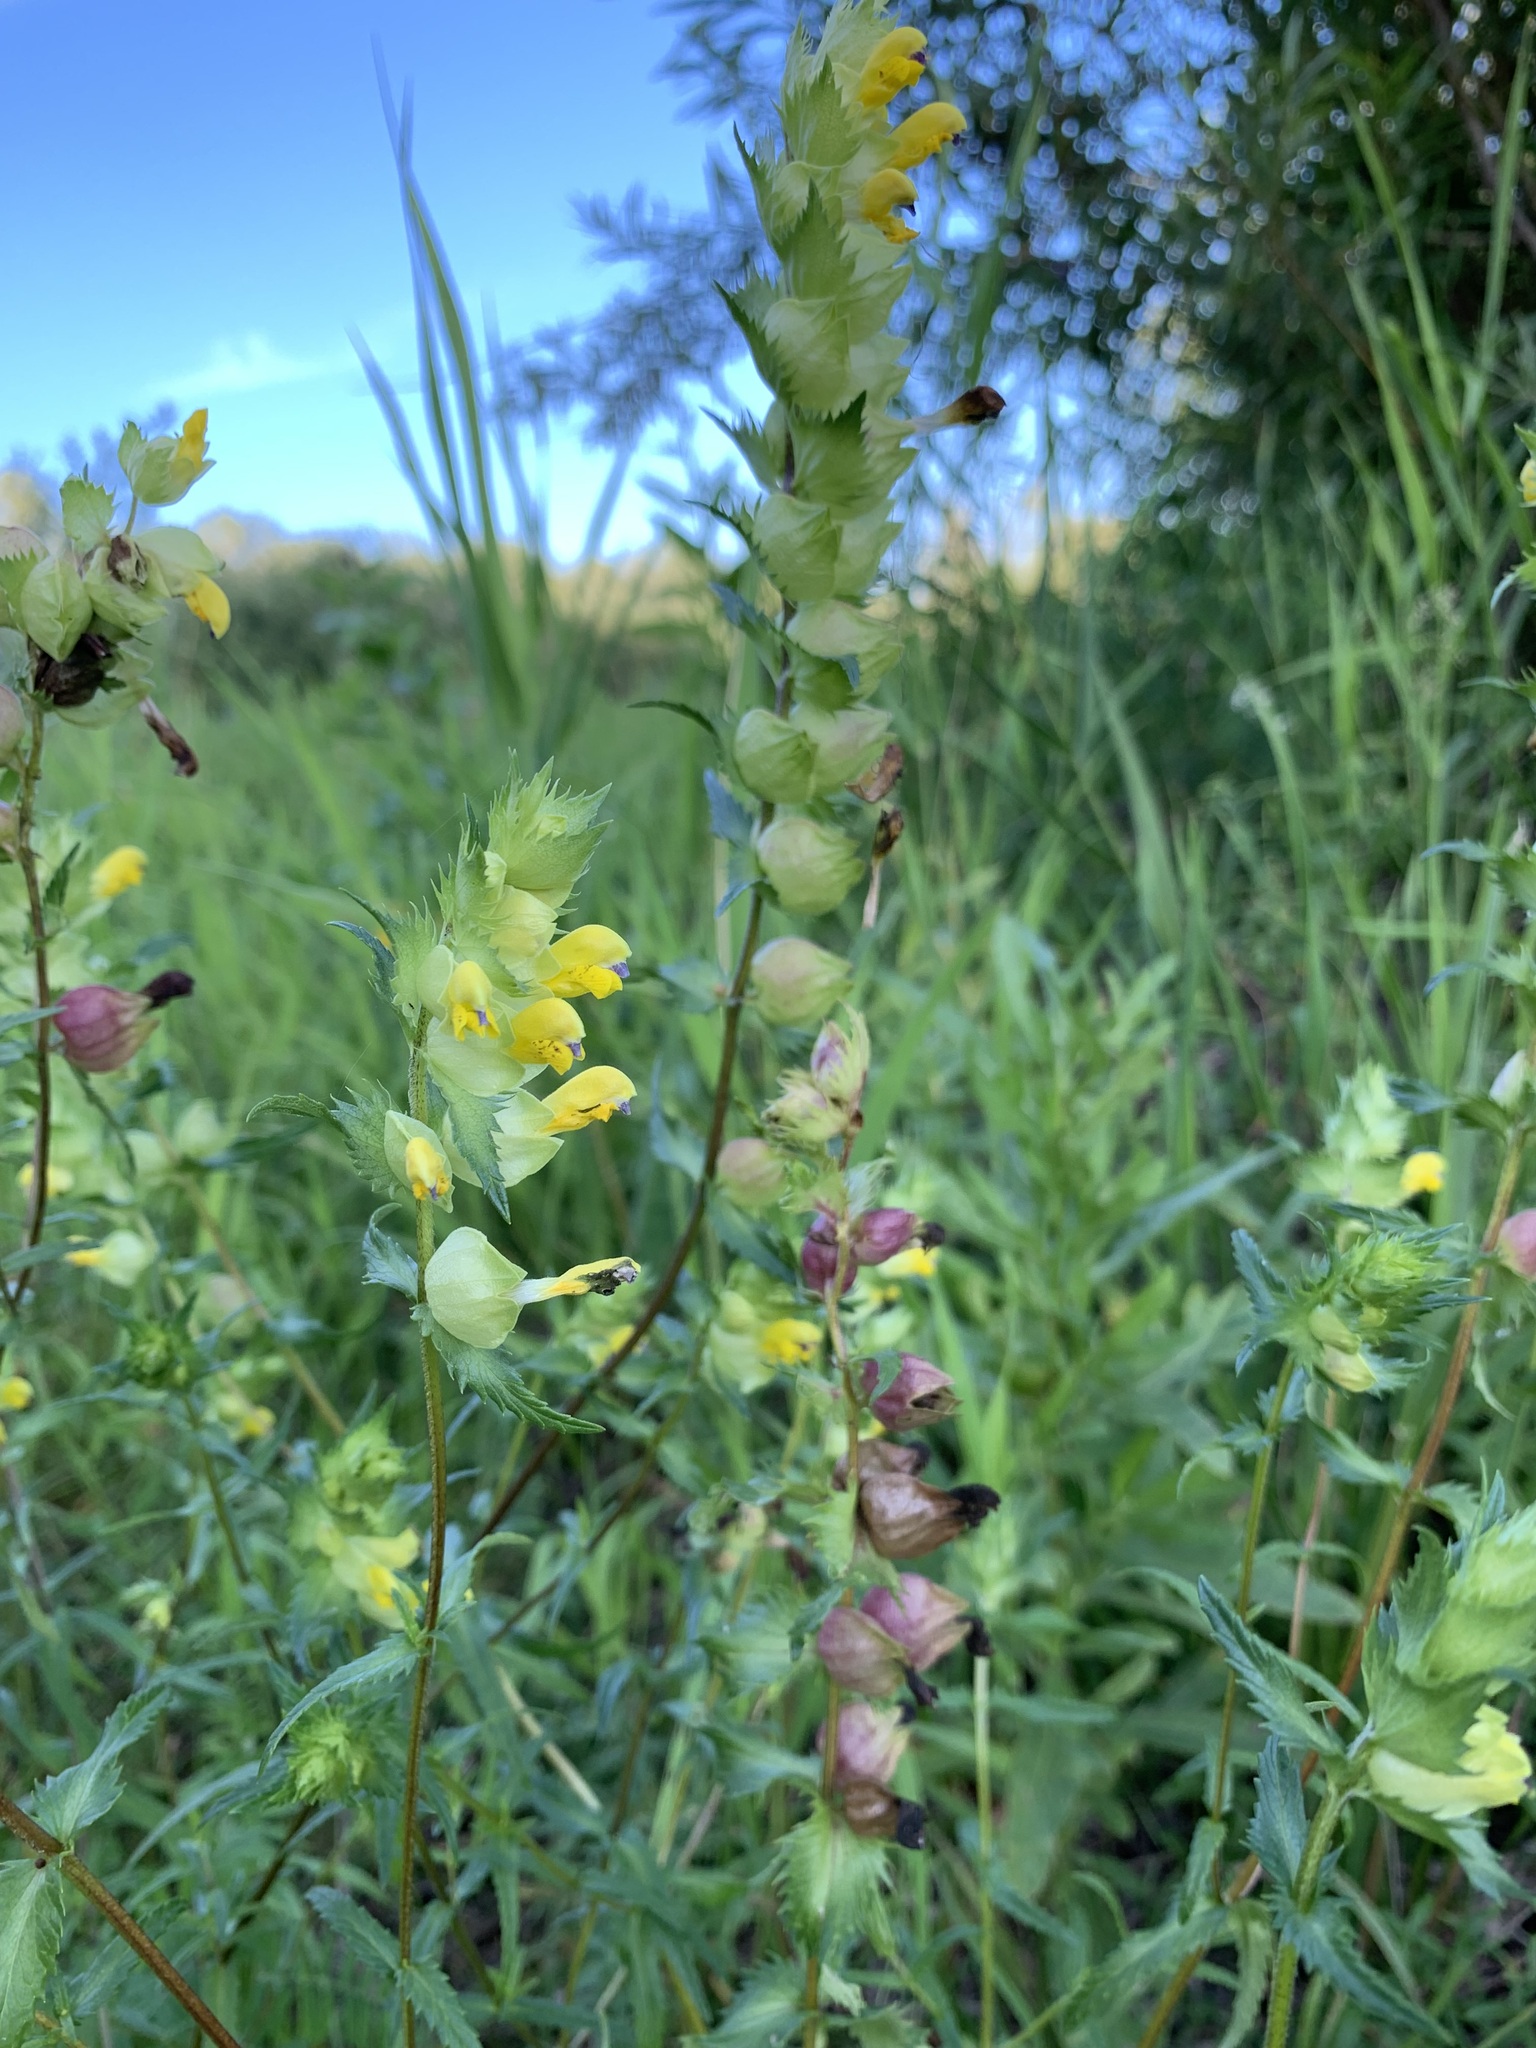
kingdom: Plantae
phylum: Tracheophyta
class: Magnoliopsida
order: Lamiales
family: Orobanchaceae
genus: Rhinanthus
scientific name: Rhinanthus serotinus
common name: Late-flowering yellow rattle
